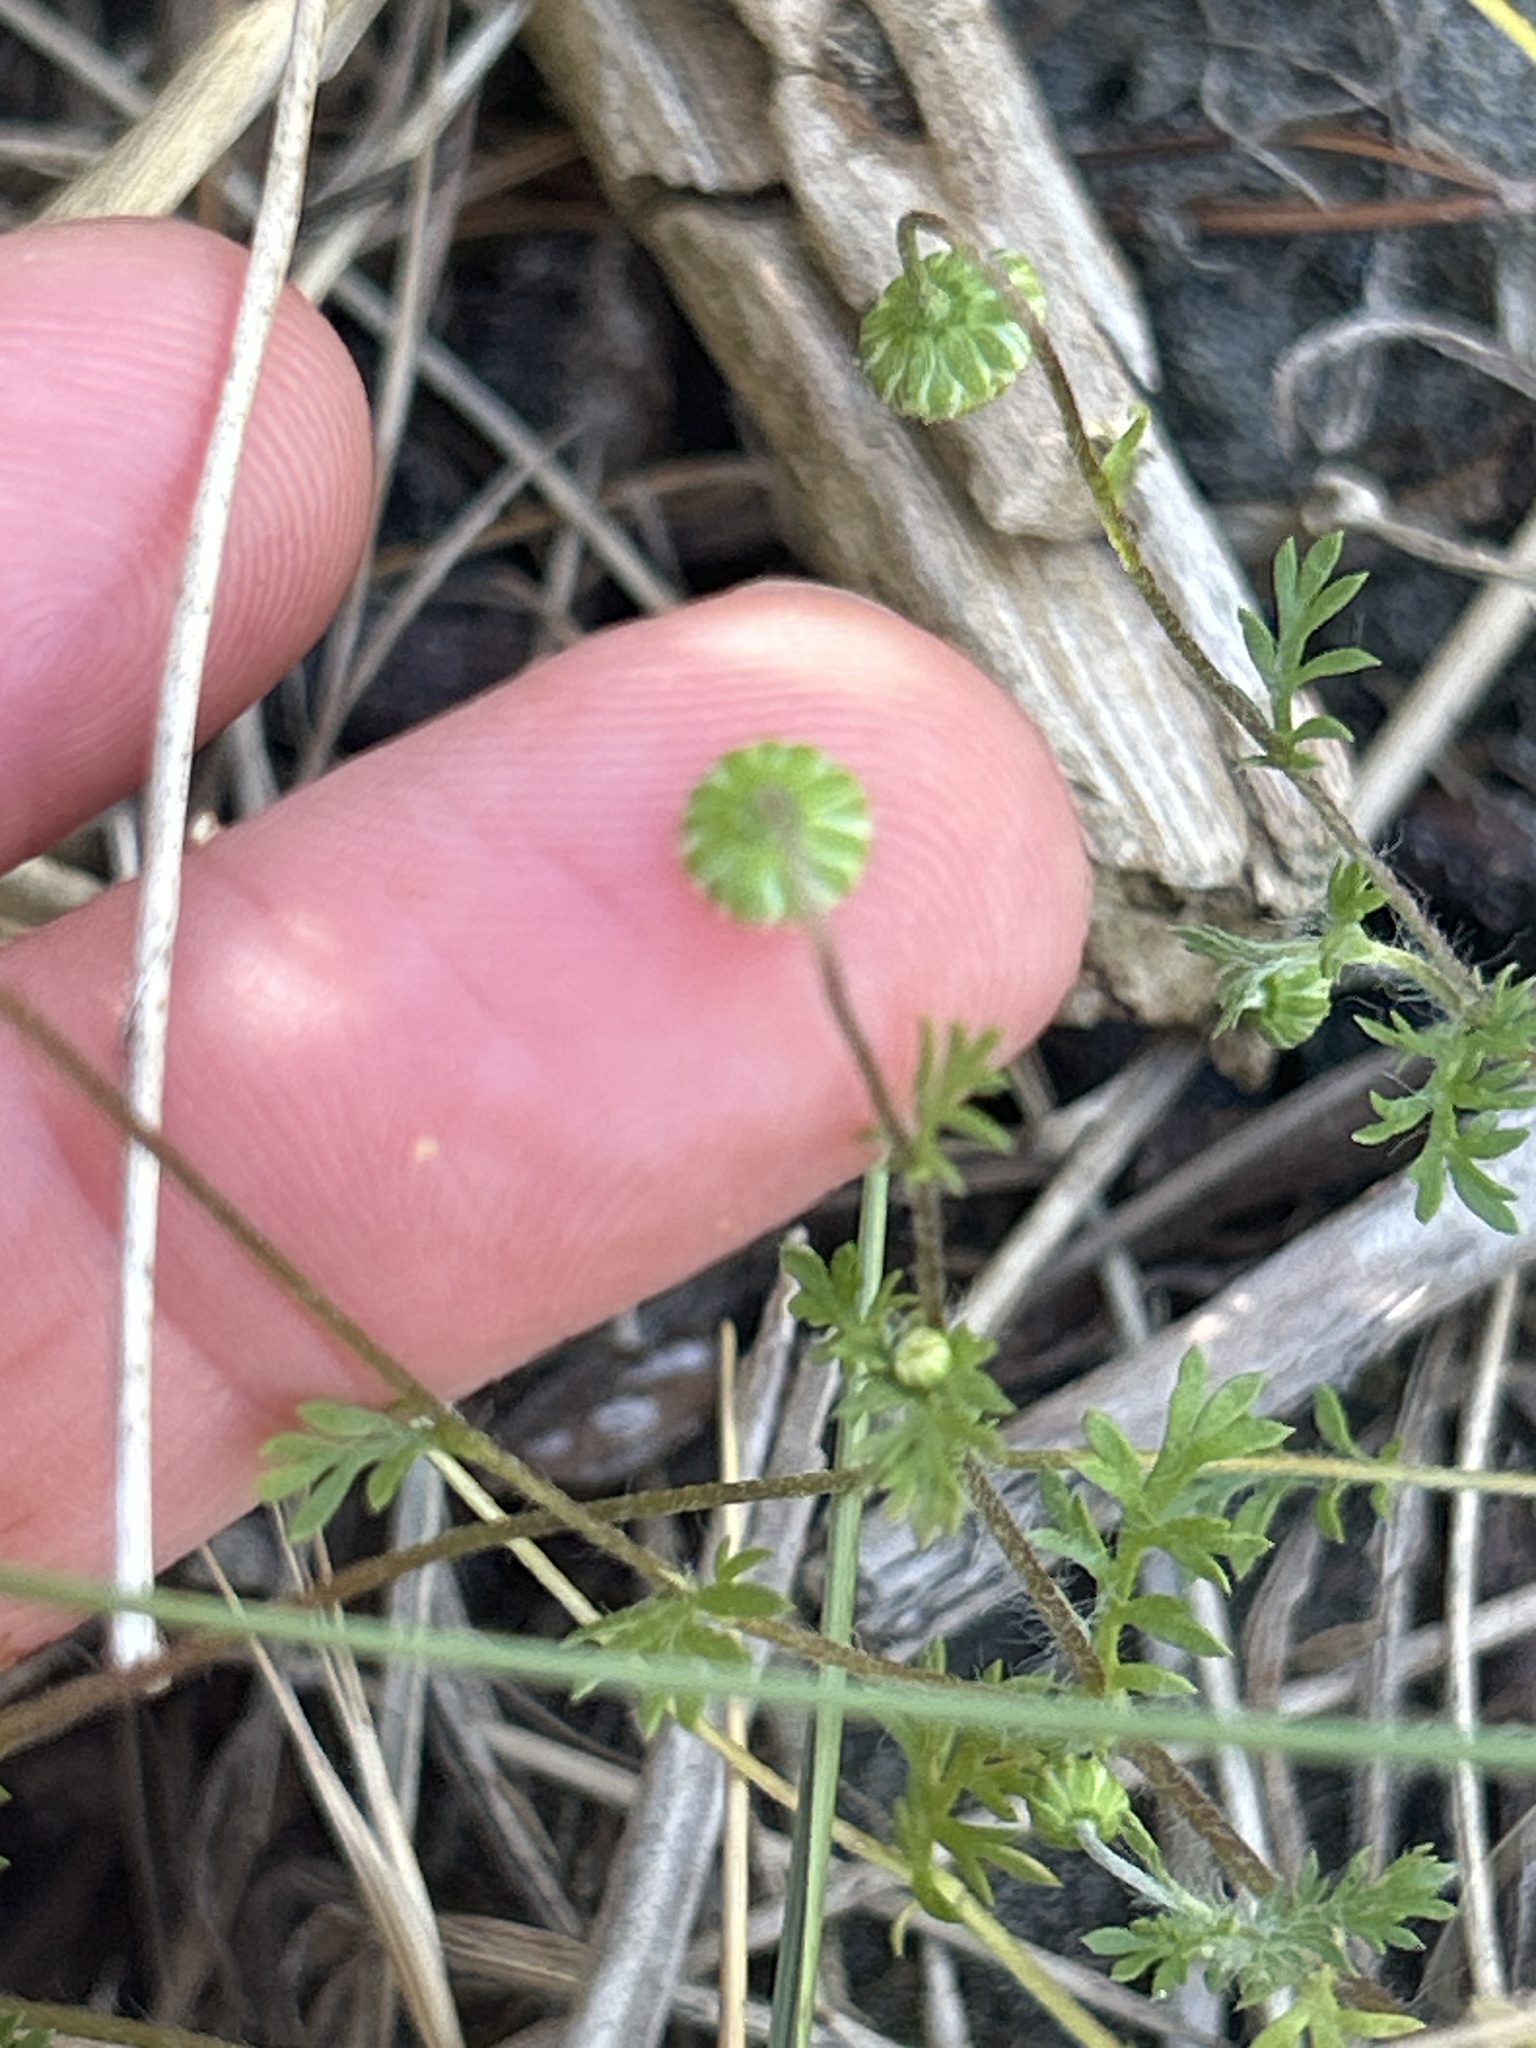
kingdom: Plantae
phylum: Tracheophyta
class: Magnoliopsida
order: Asterales
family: Asteraceae
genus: Cotula
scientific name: Cotula australis
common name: Australian waterbuttons
